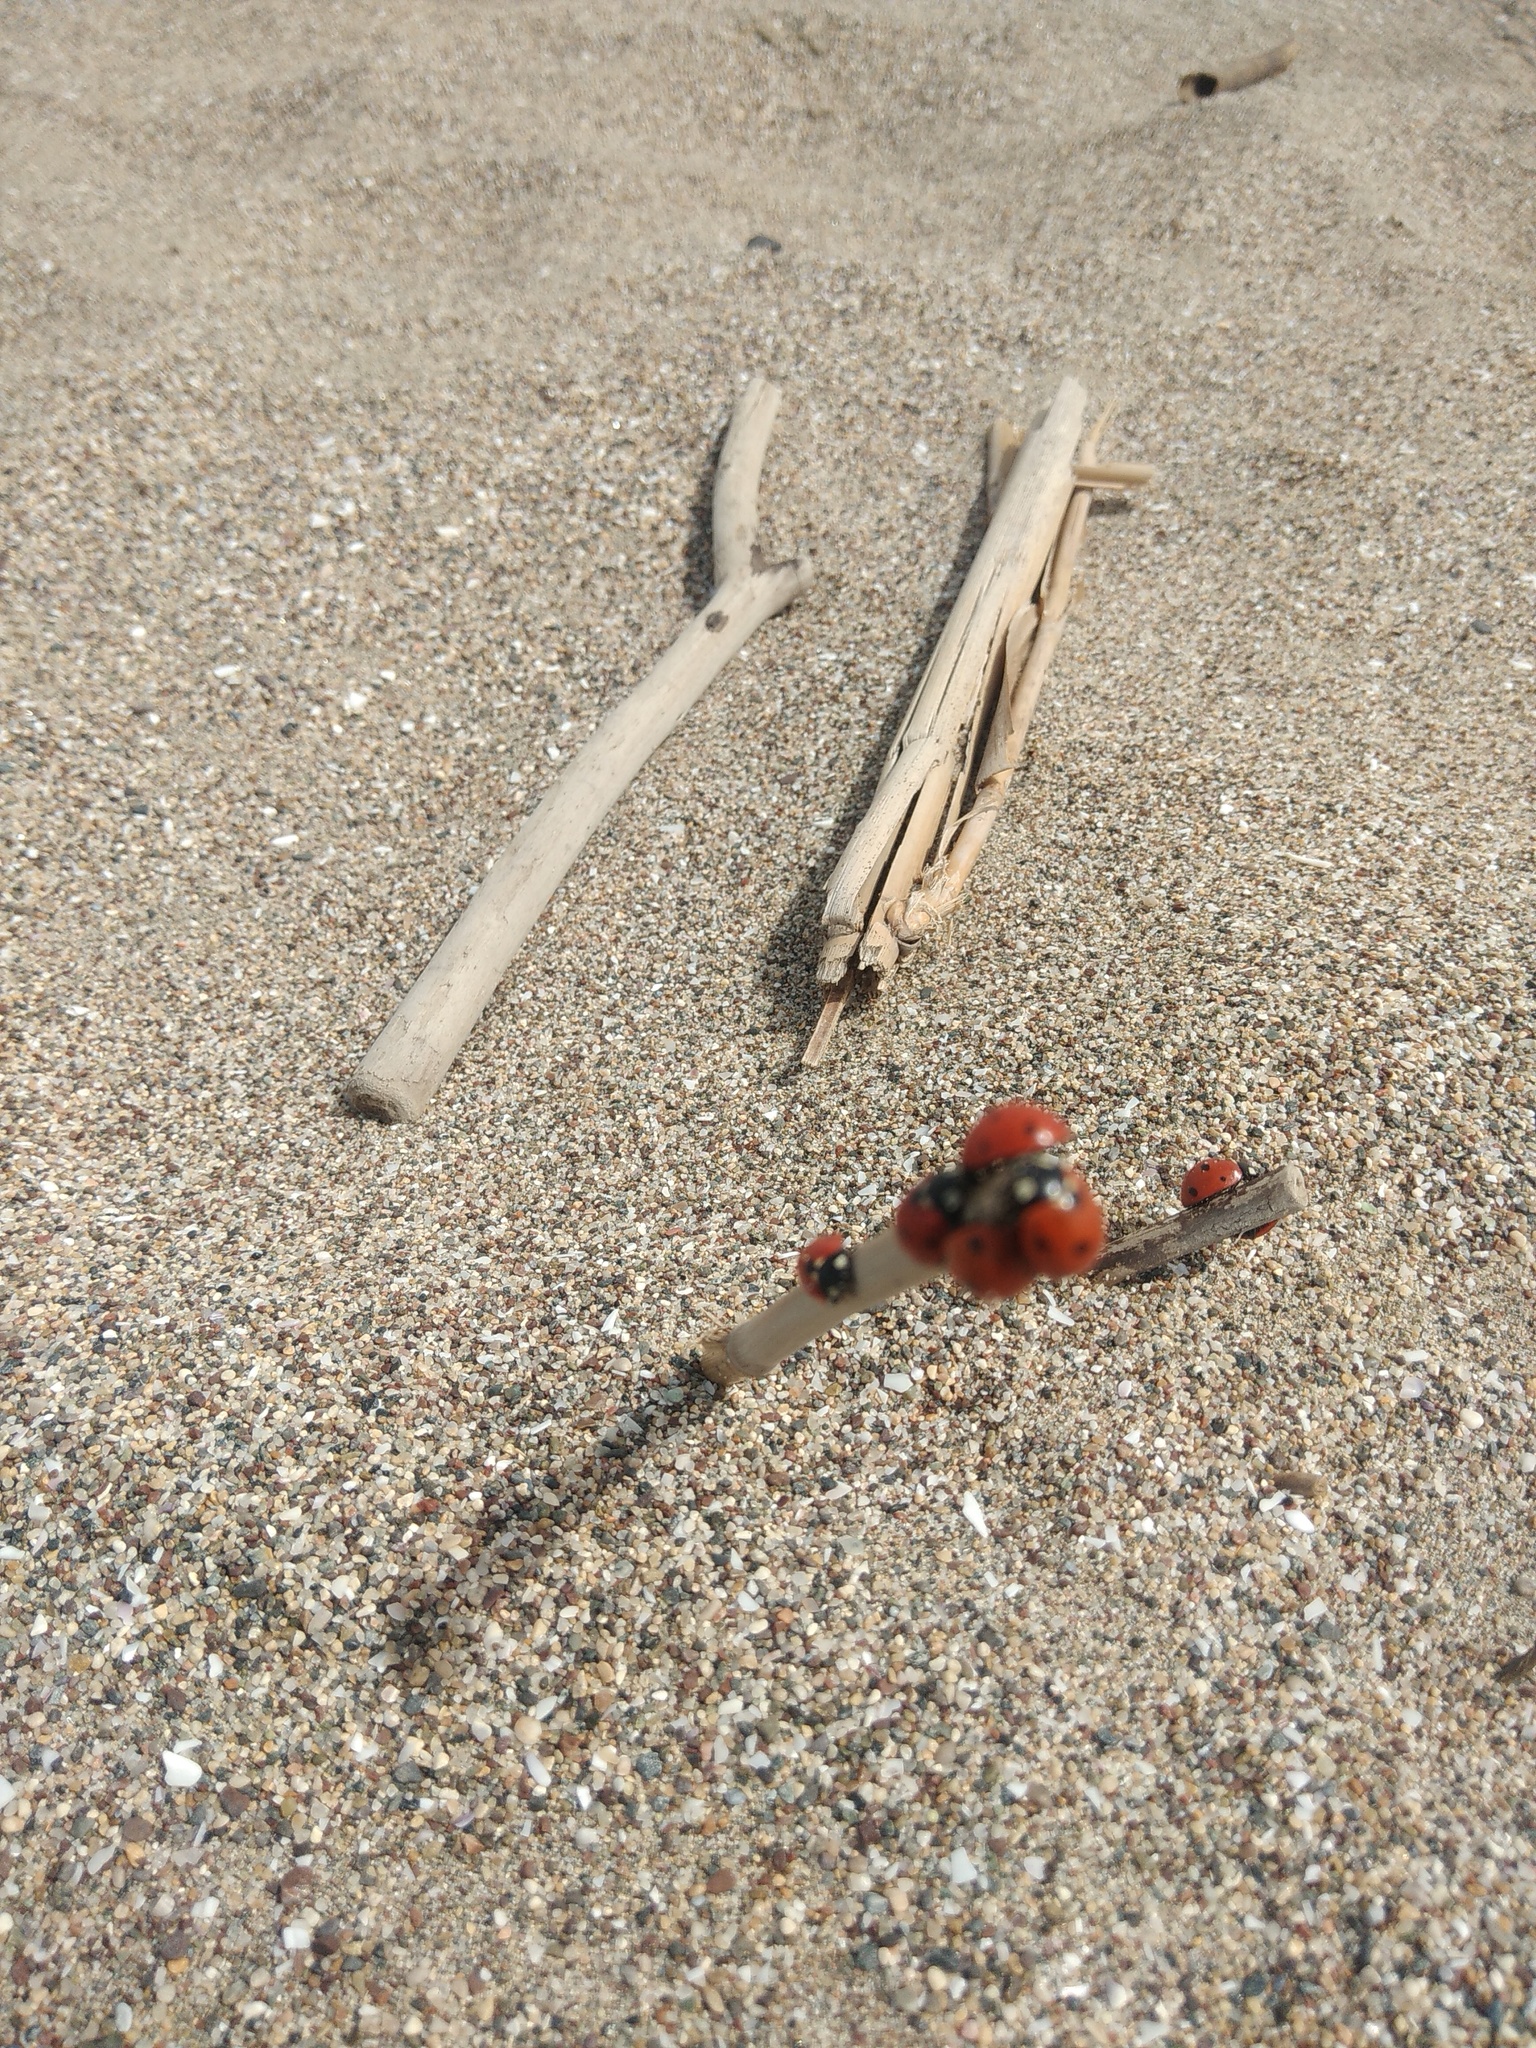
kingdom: Animalia
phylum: Arthropoda
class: Insecta
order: Coleoptera
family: Coccinellidae
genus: Coccinella
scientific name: Coccinella septempunctata
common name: Sevenspotted lady beetle
